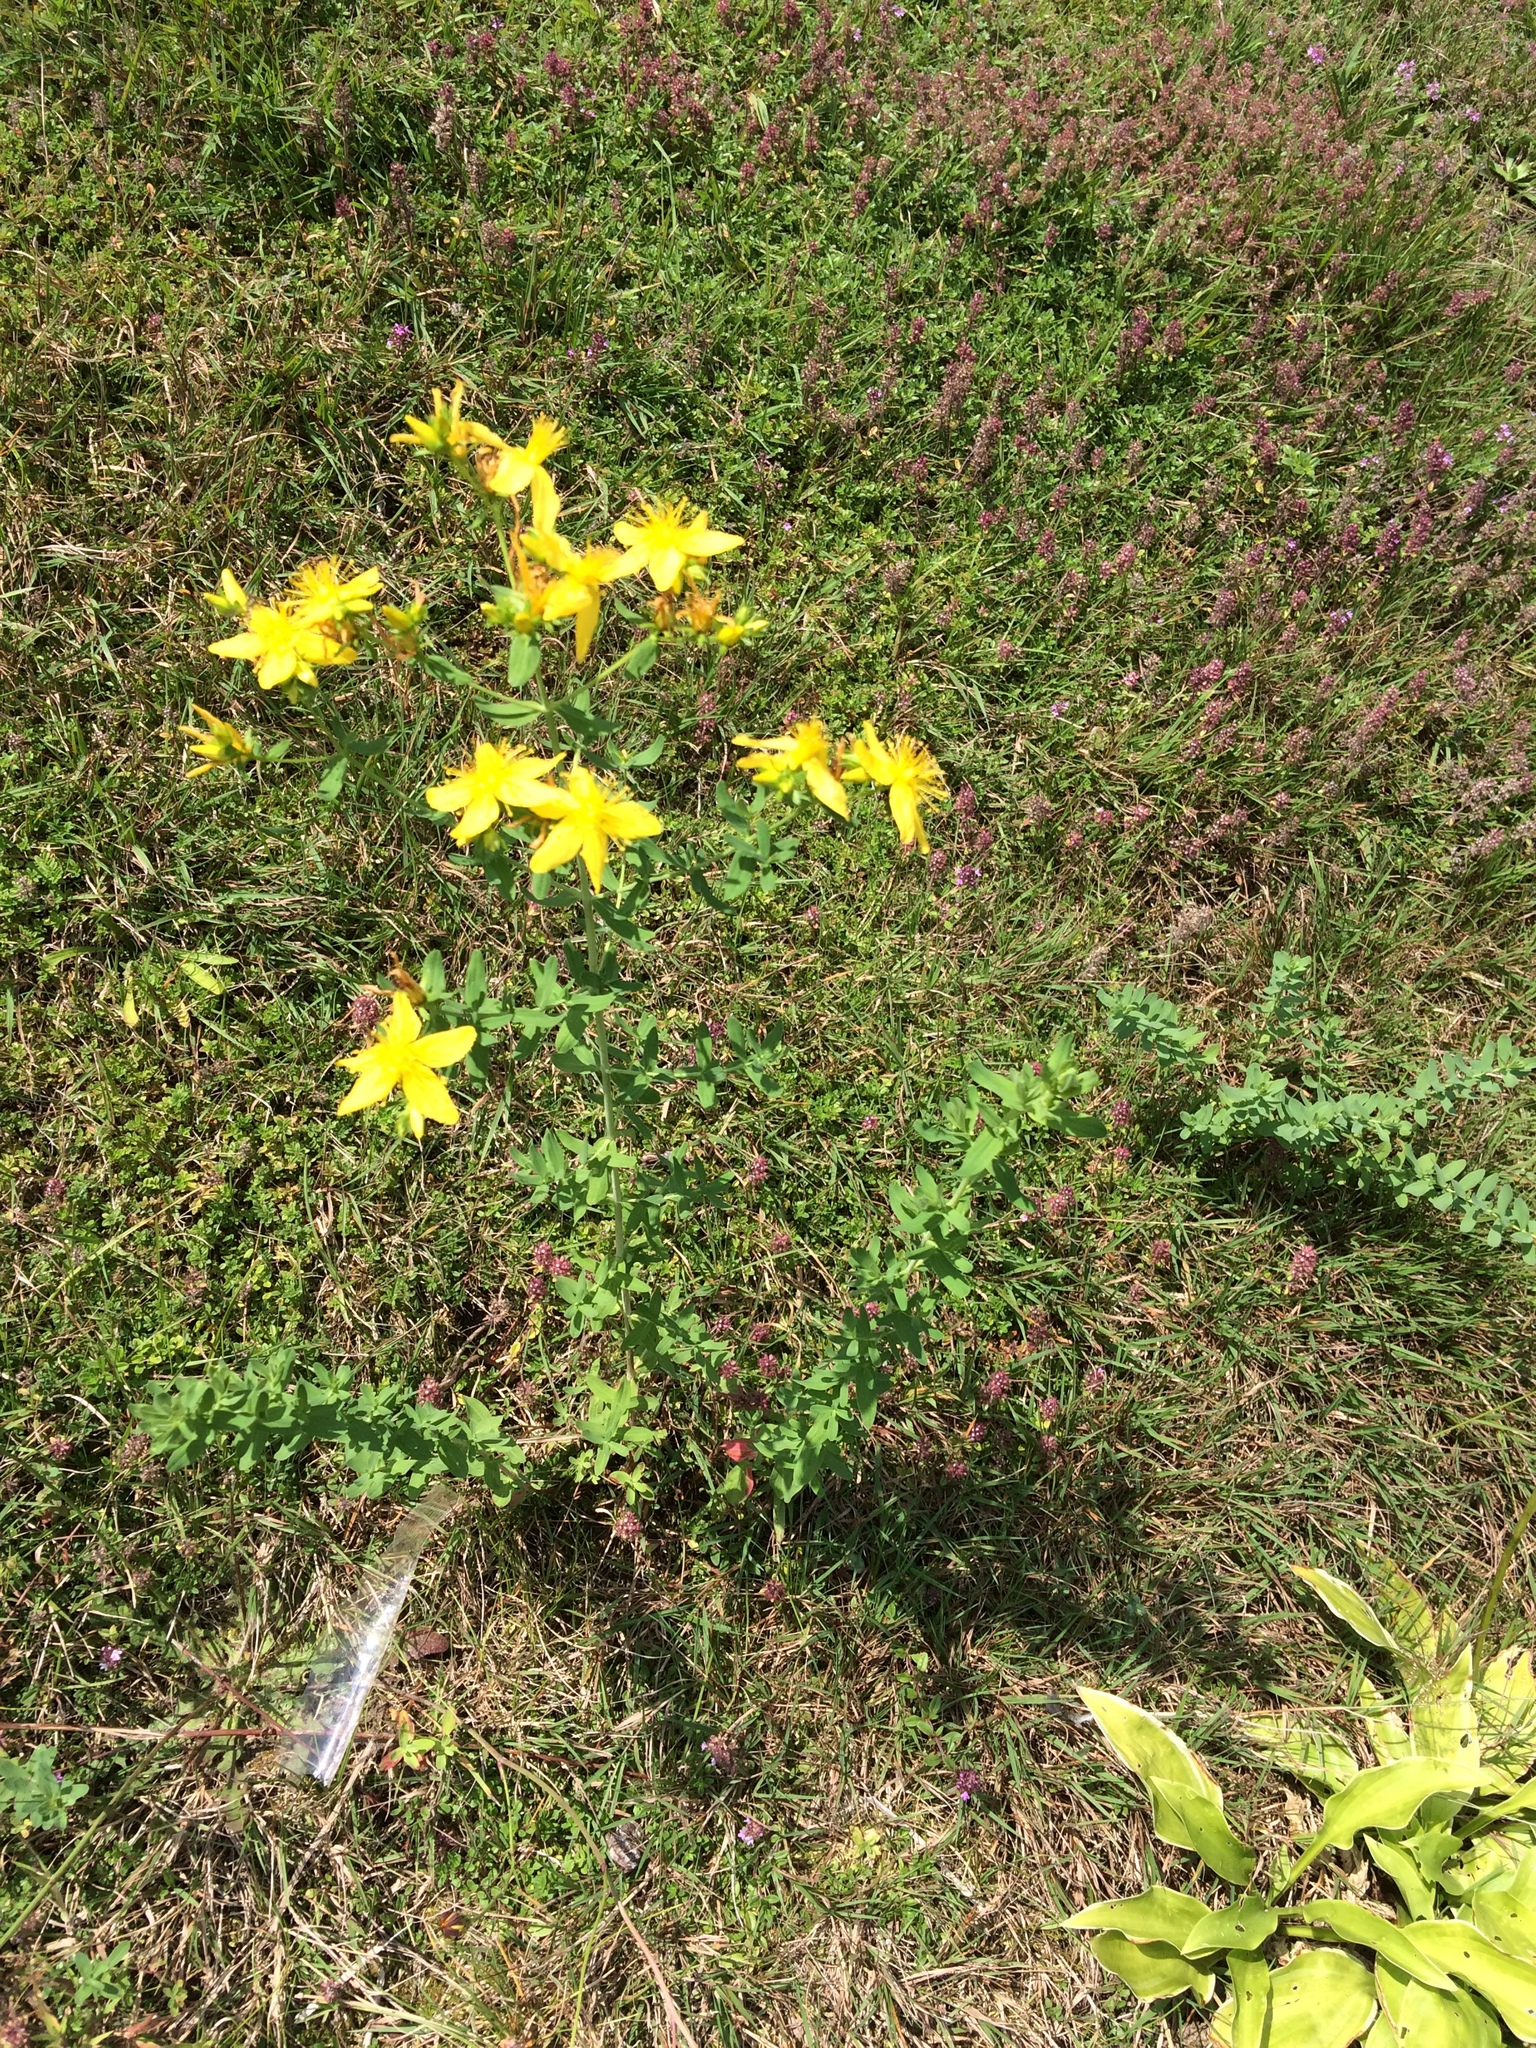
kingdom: Plantae
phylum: Tracheophyta
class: Magnoliopsida
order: Malpighiales
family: Hypericaceae
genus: Hypericum
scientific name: Hypericum perforatum
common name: Common st. johnswort
